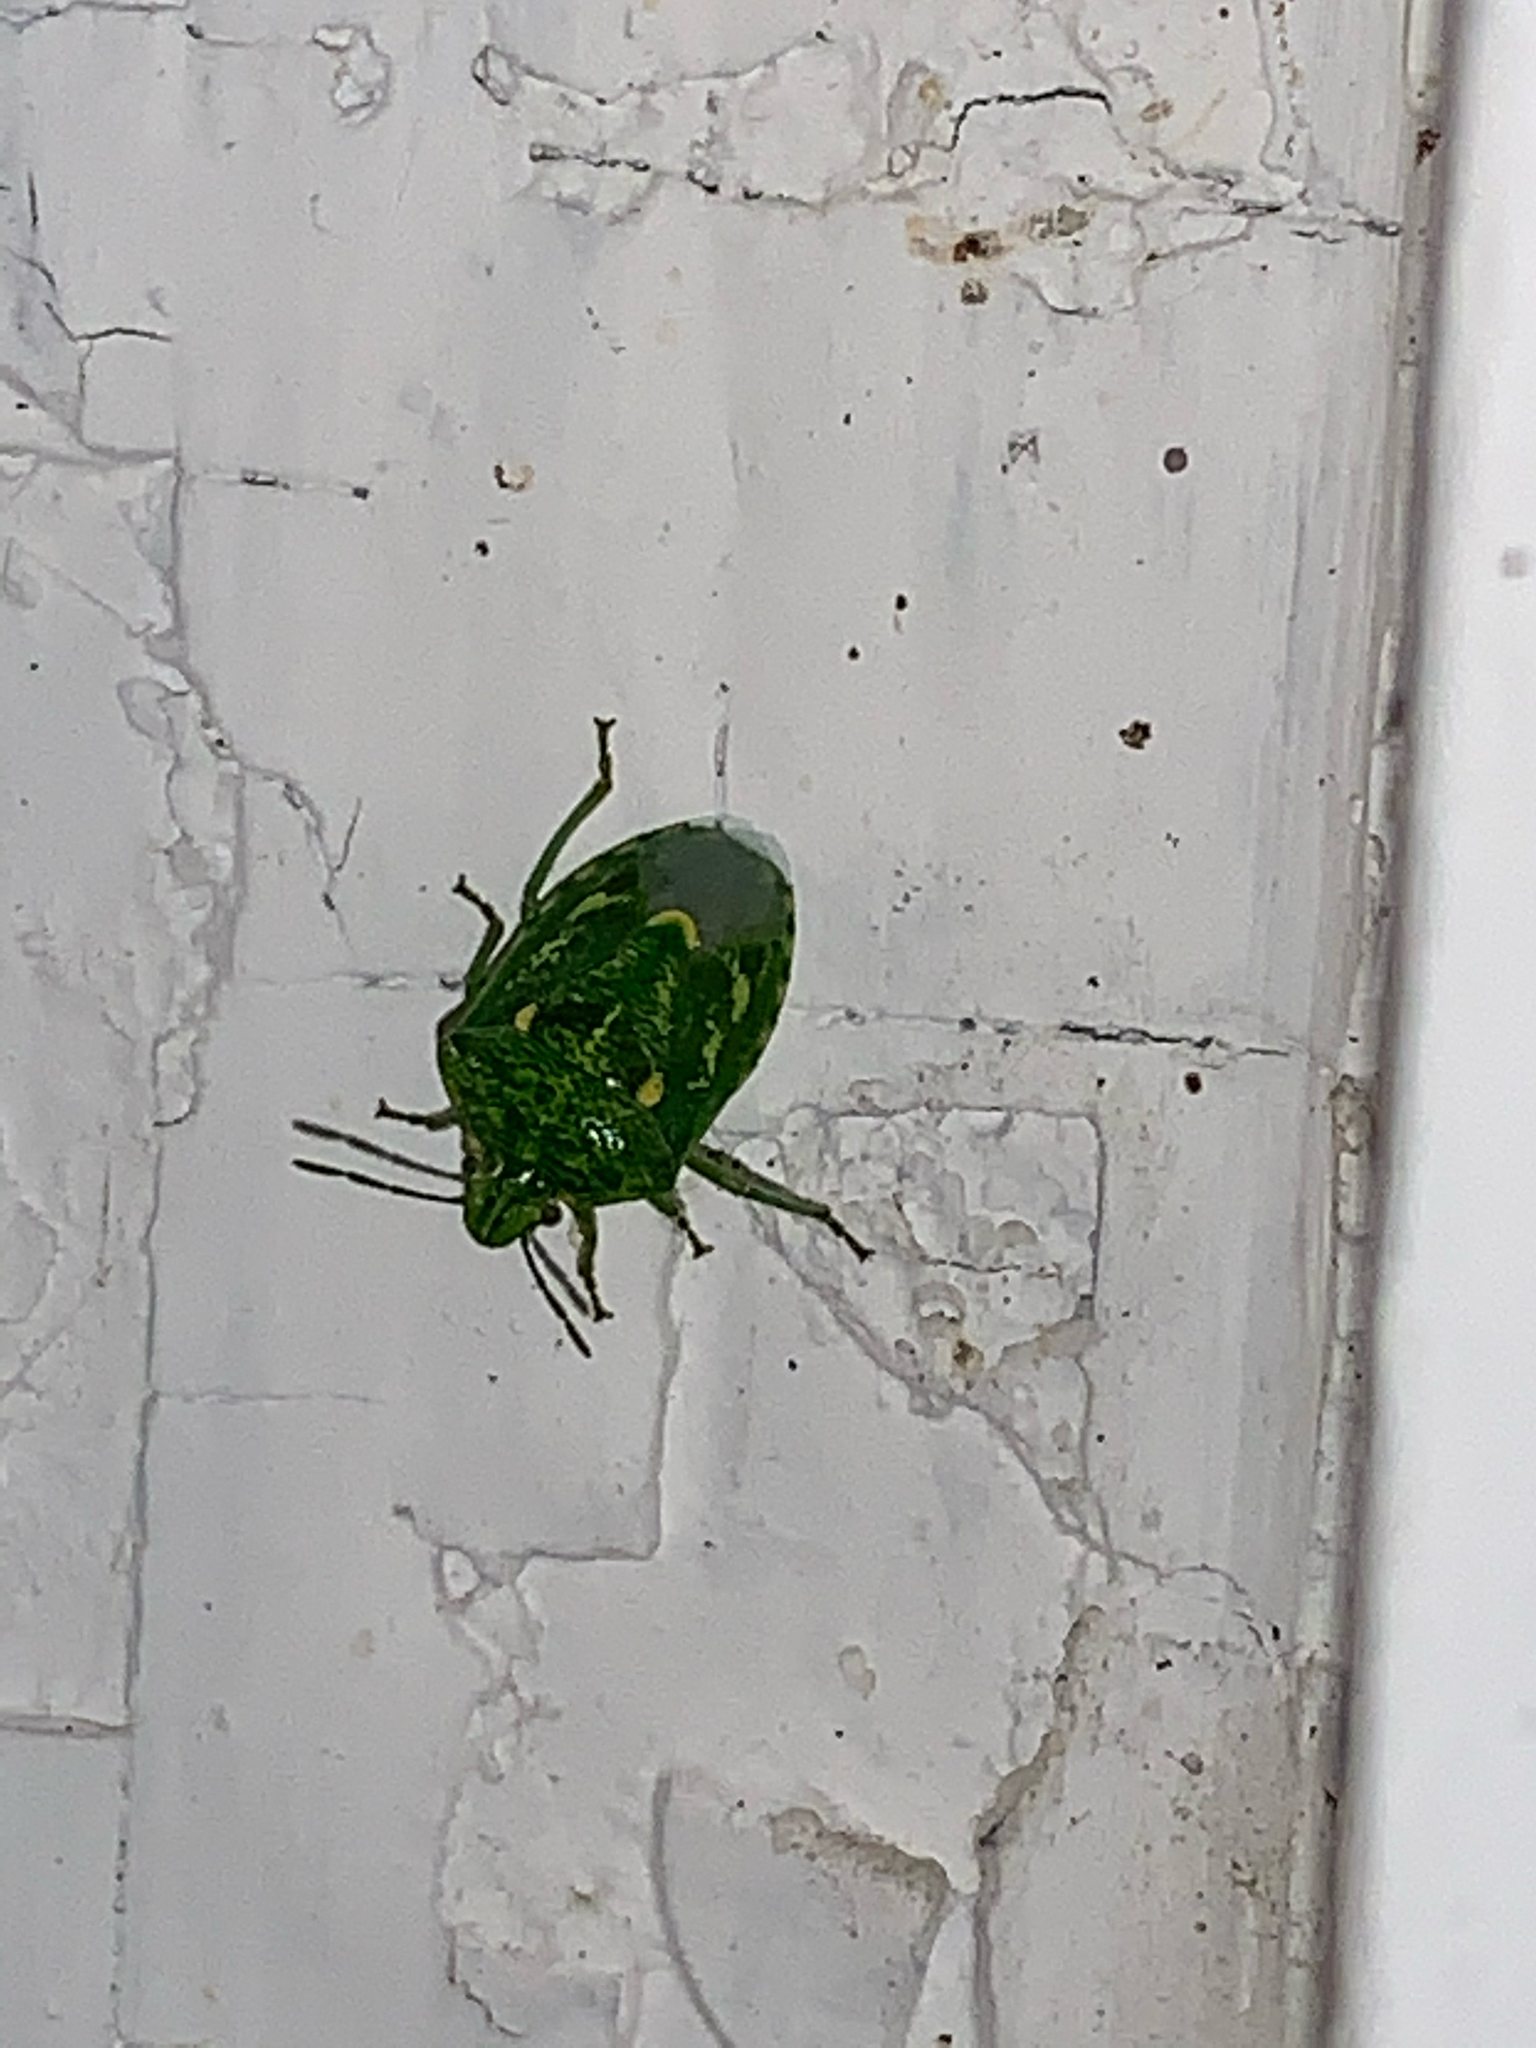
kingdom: Animalia
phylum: Arthropoda
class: Insecta
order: Hemiptera
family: Pentatomidae
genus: Banasa
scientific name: Banasa euchlora
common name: Cedar berry bug
